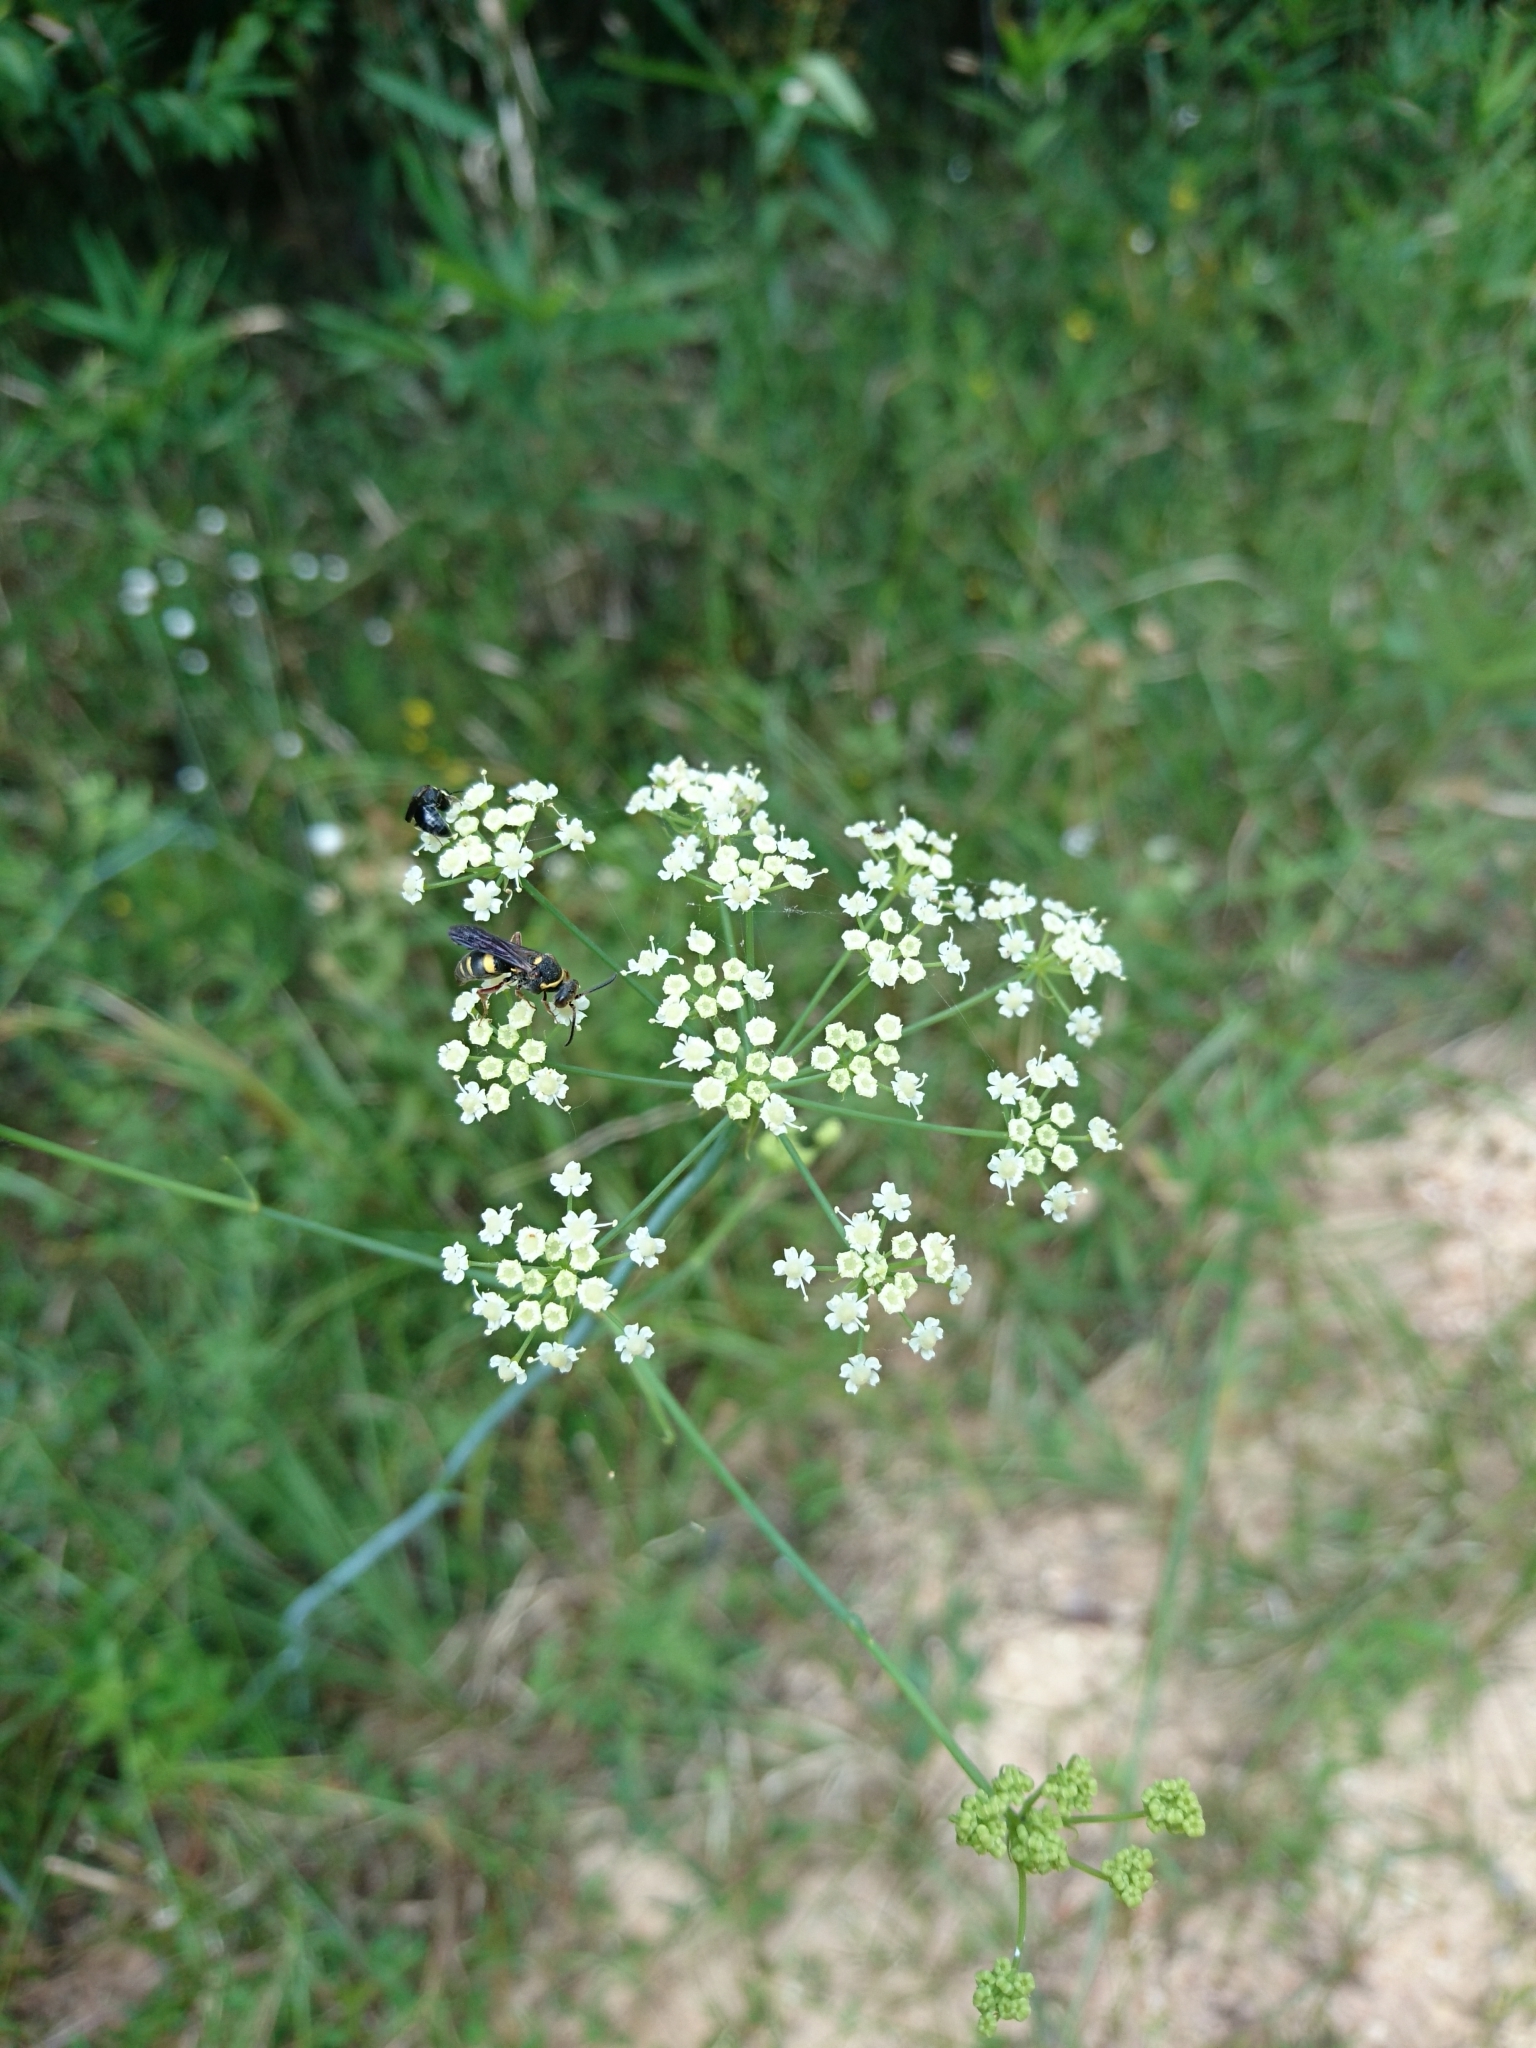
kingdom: Plantae
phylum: Tracheophyta
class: Magnoliopsida
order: Apiales
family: Apiaceae
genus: Tiedemannia
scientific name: Tiedemannia filiformis
